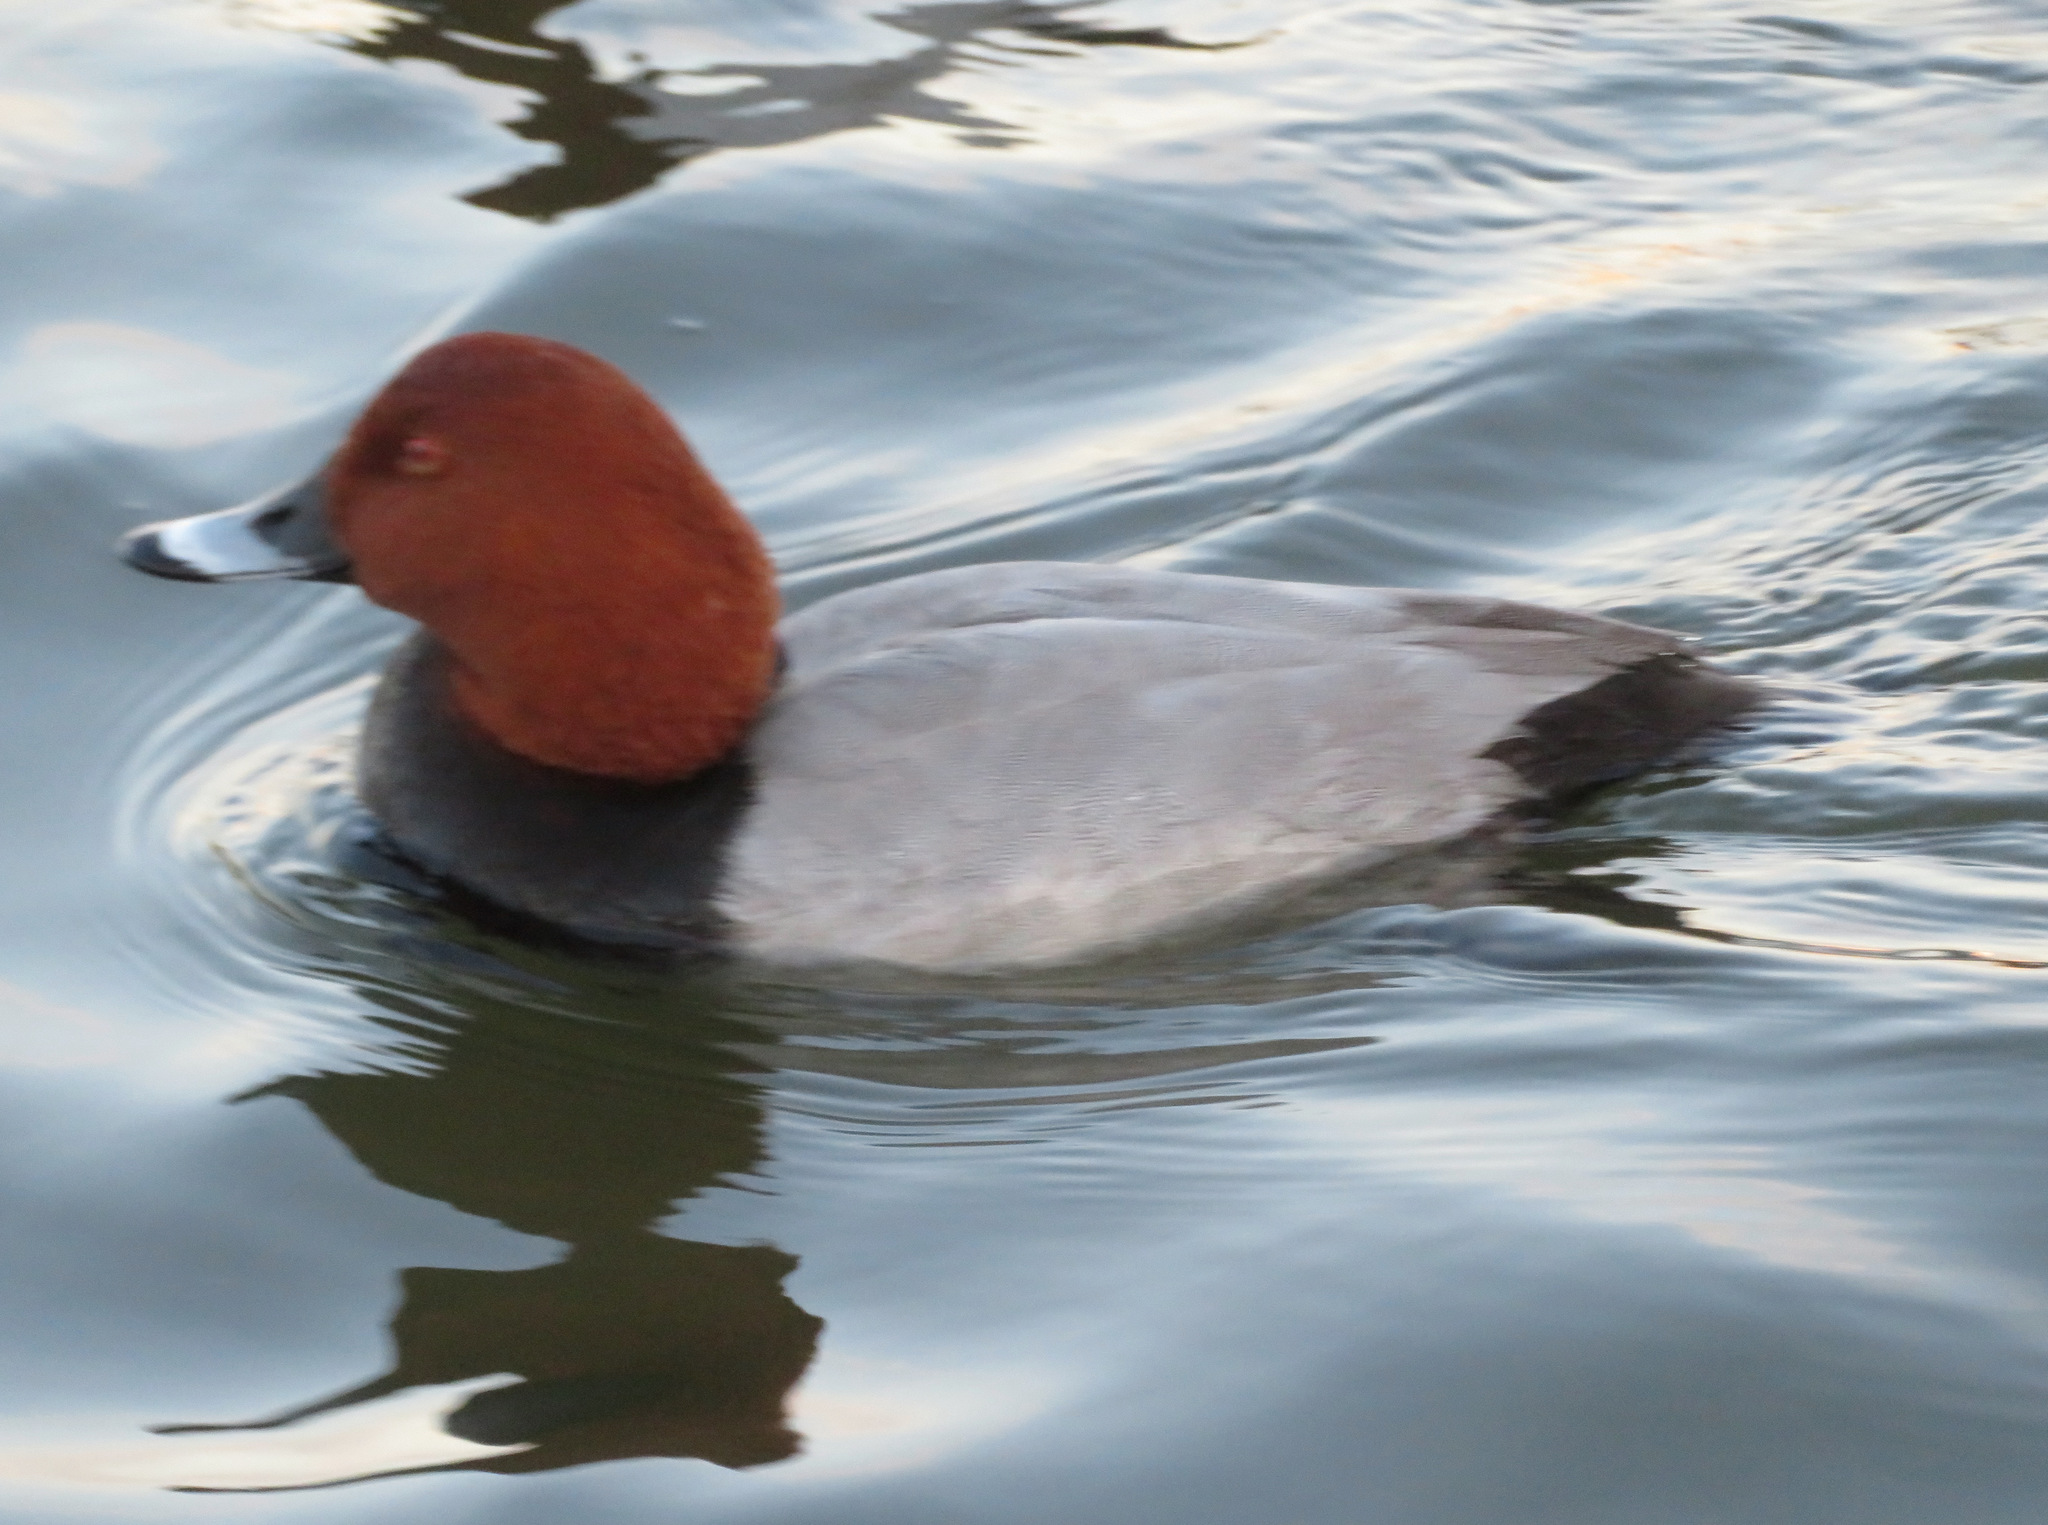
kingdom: Animalia
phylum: Chordata
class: Aves
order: Anseriformes
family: Anatidae
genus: Aythya
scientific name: Aythya ferina
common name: Common pochard
